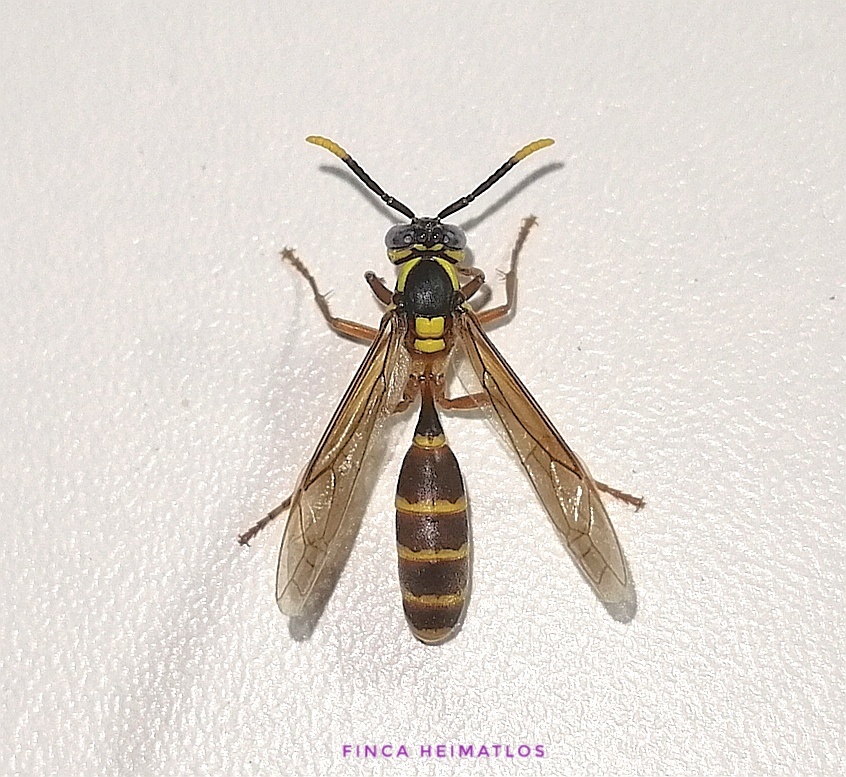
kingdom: Animalia
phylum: Arthropoda
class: Insecta
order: Hymenoptera
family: Vespidae
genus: Apoica
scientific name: Apoica arborea
